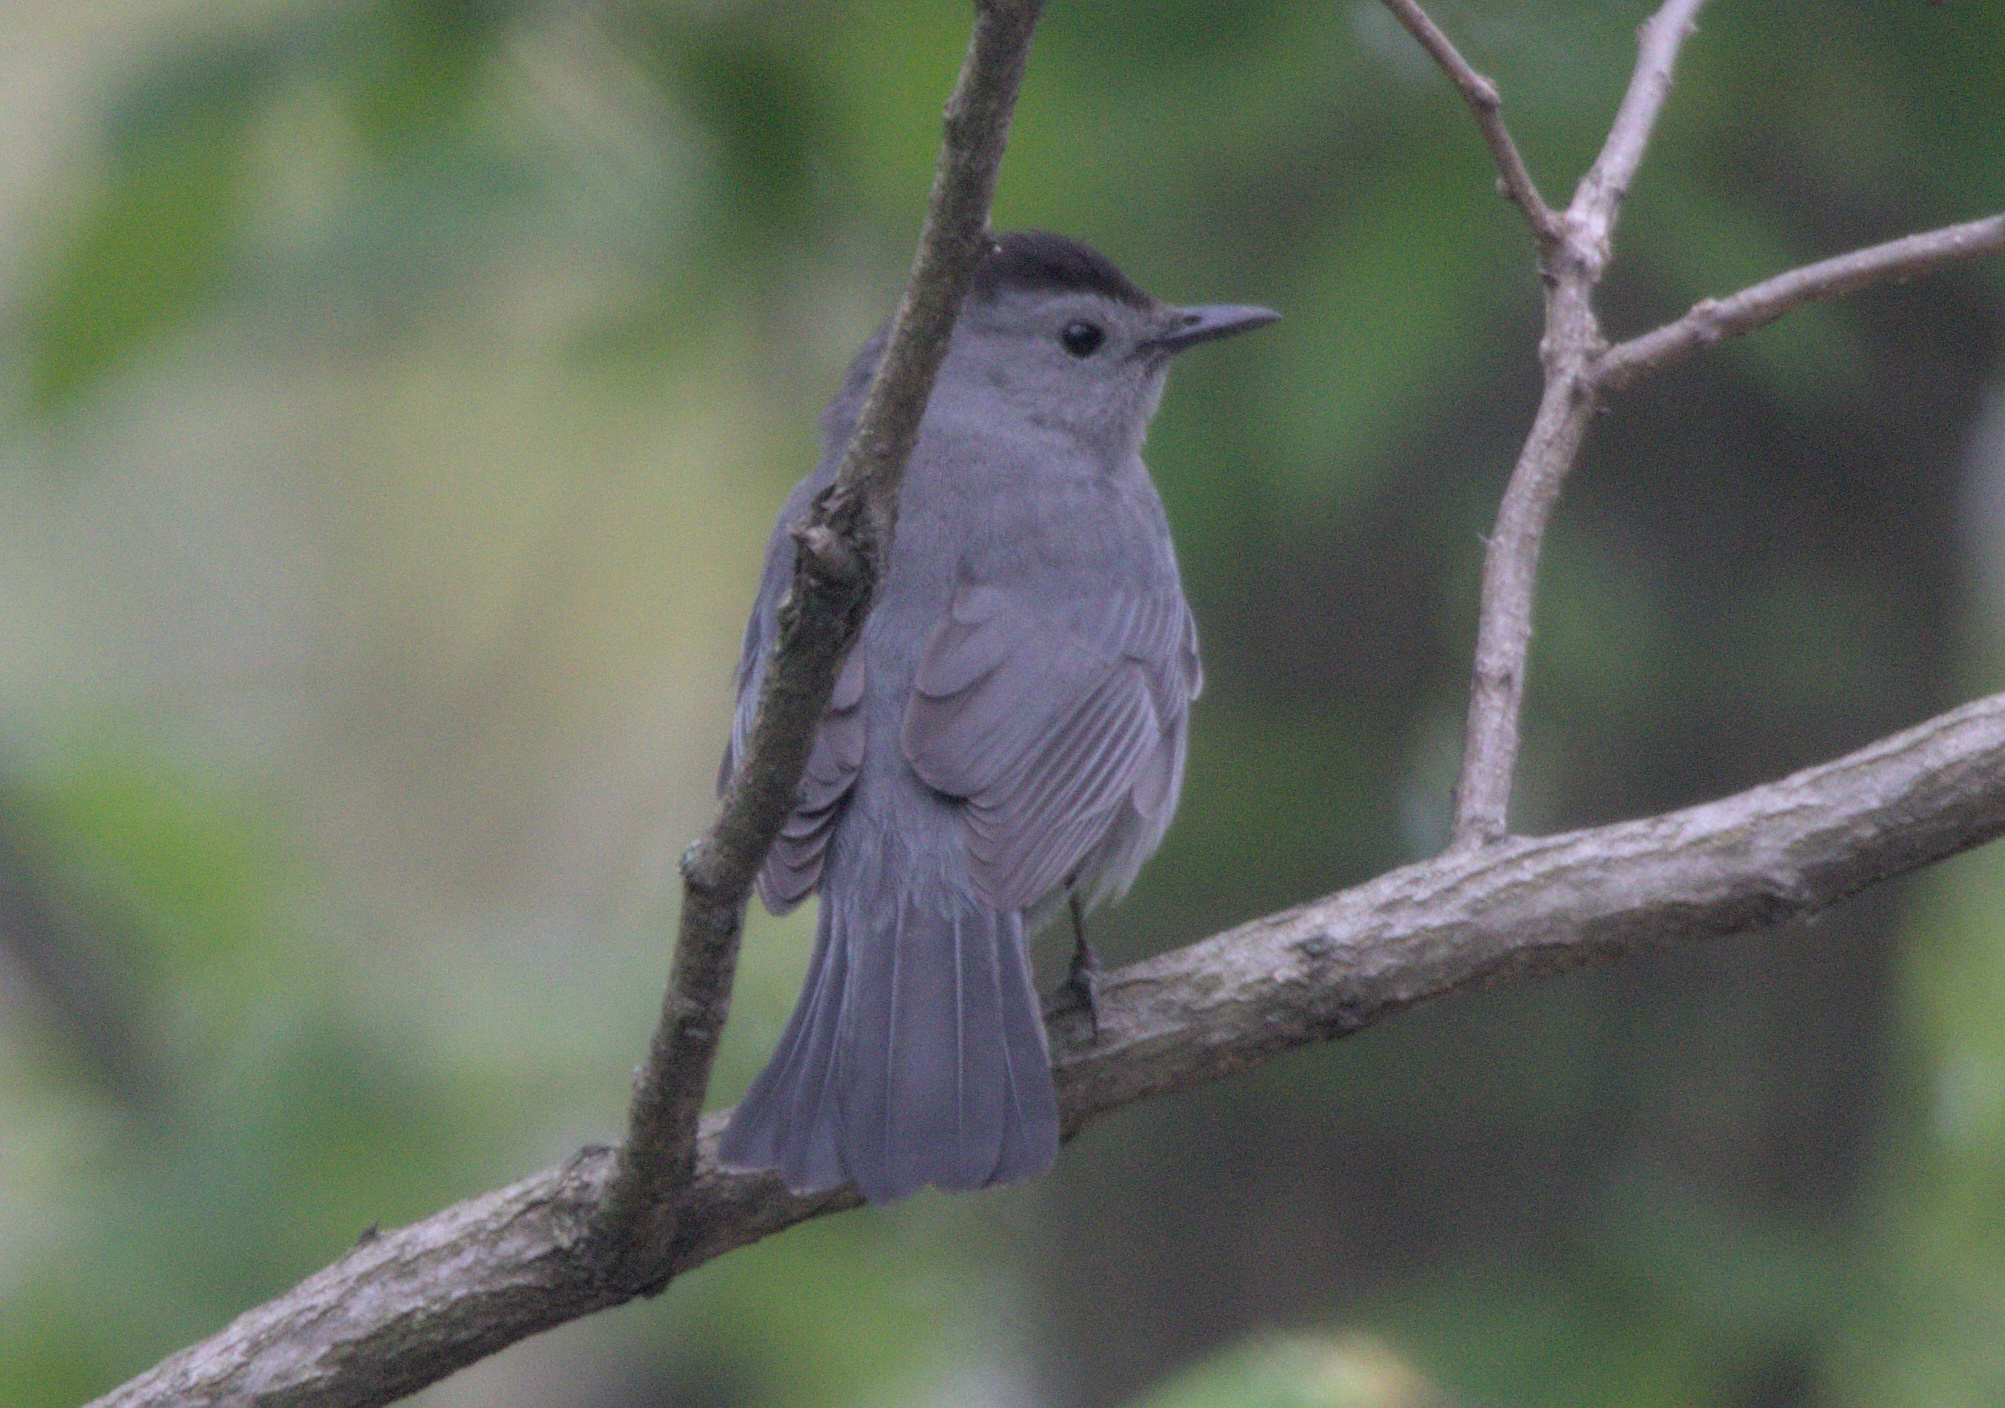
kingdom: Animalia
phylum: Chordata
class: Aves
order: Passeriformes
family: Mimidae
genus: Dumetella
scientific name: Dumetella carolinensis
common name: Gray catbird
